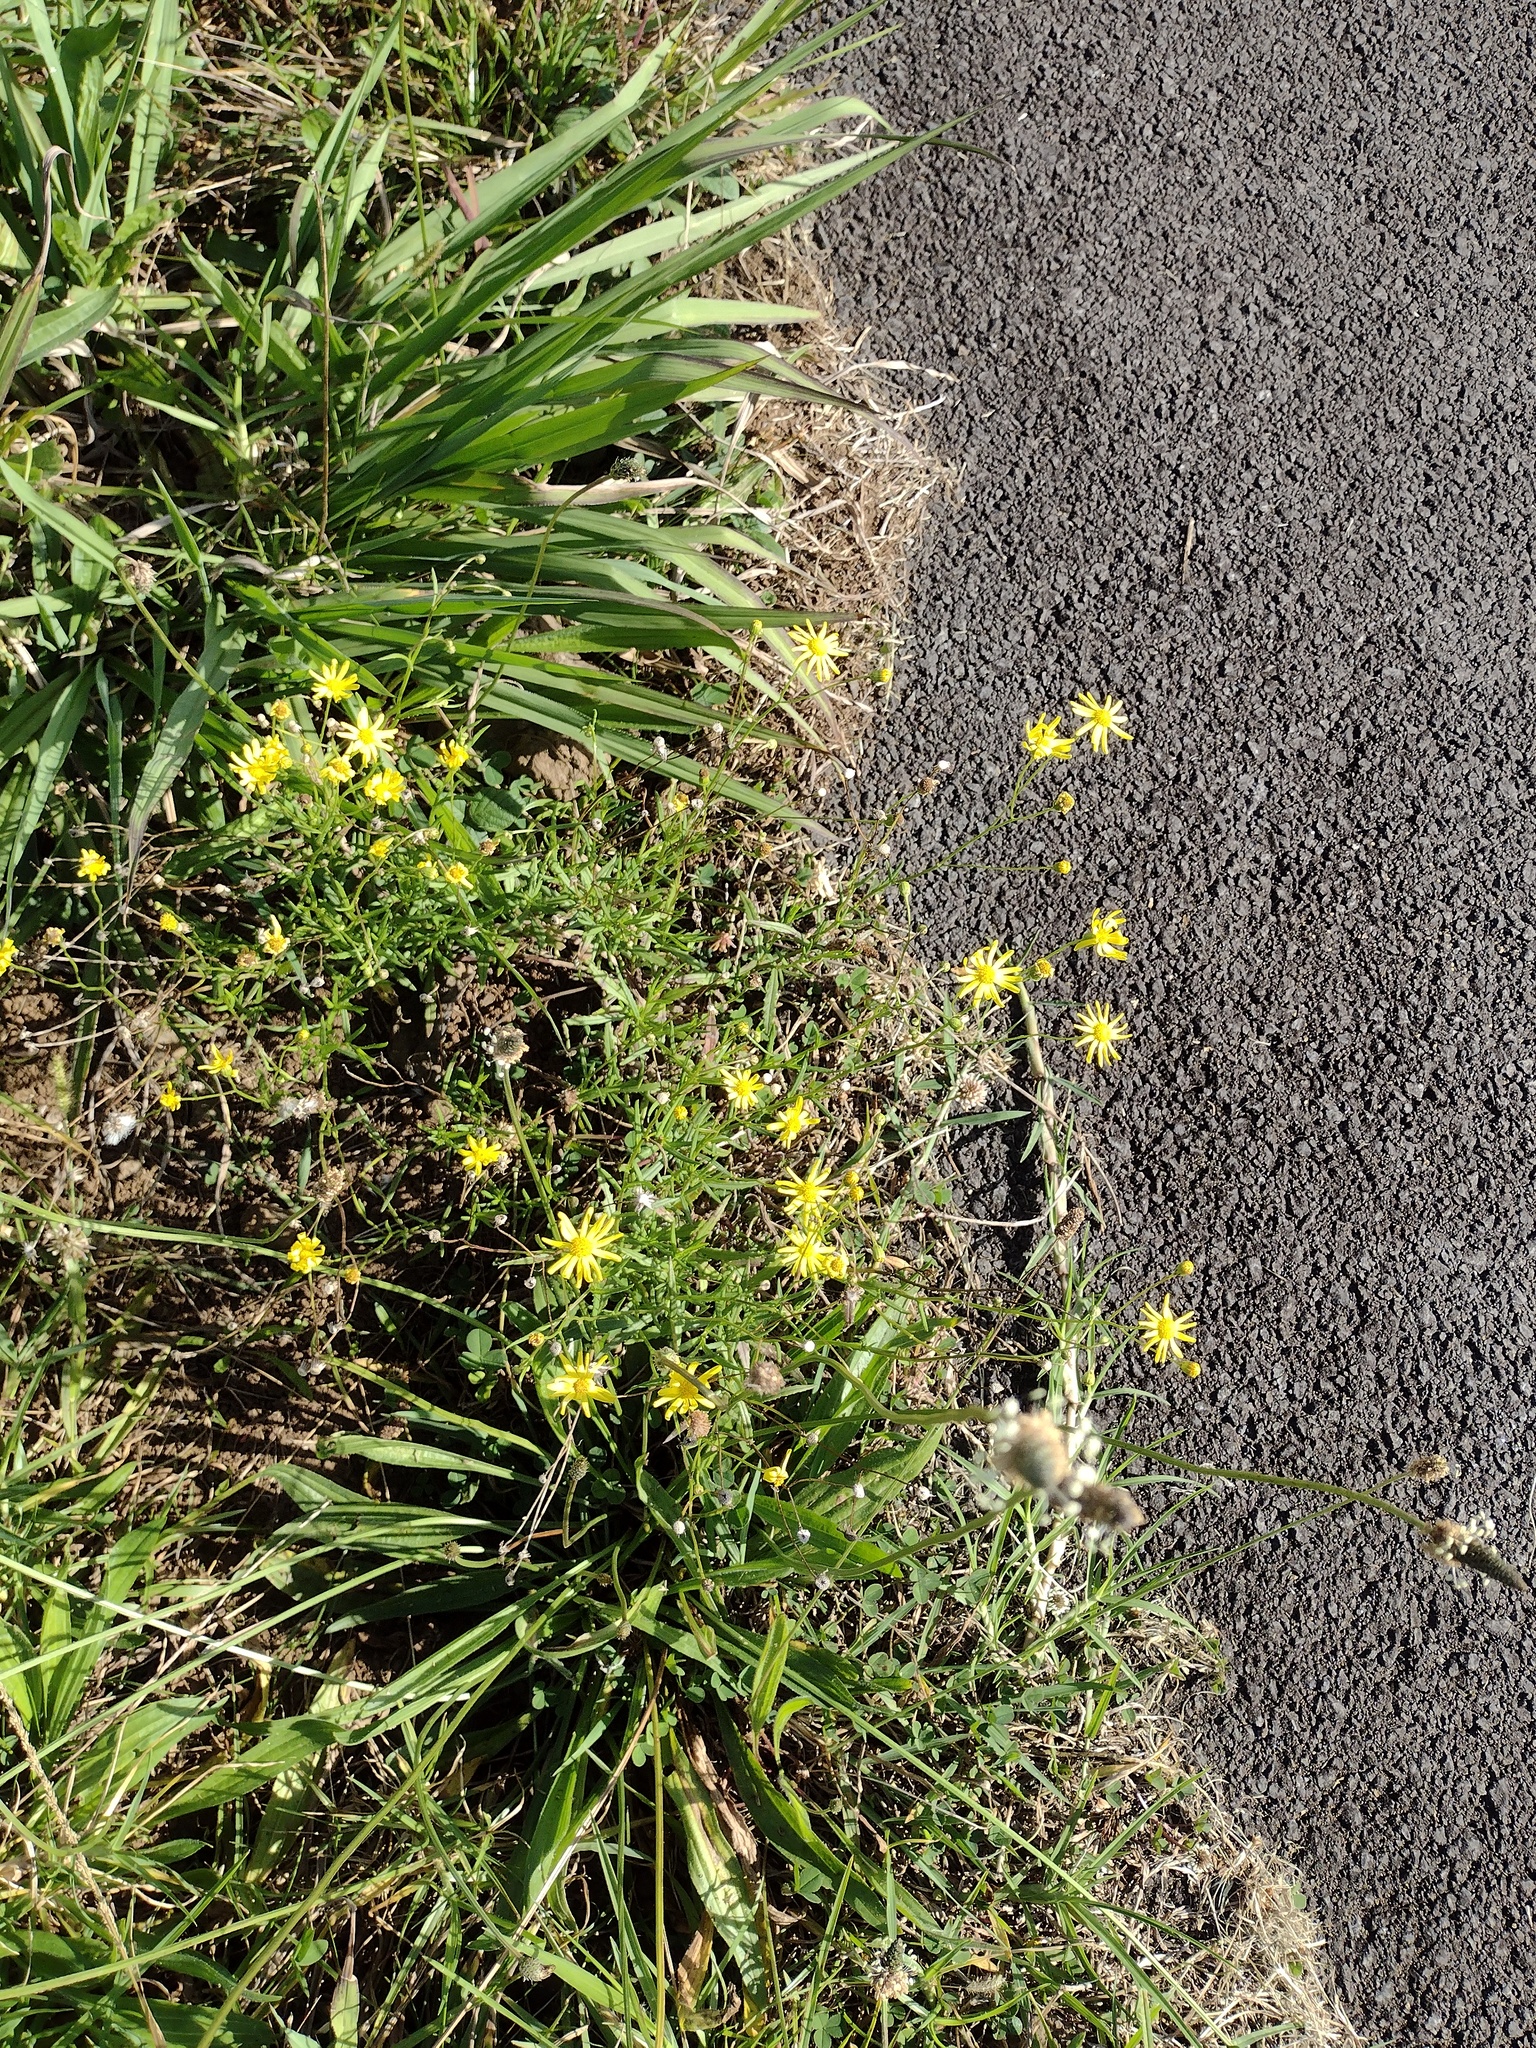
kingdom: Plantae
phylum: Tracheophyta
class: Magnoliopsida
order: Asterales
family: Asteraceae
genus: Senecio
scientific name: Senecio madagascariensis
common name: Madagascar ragwort
